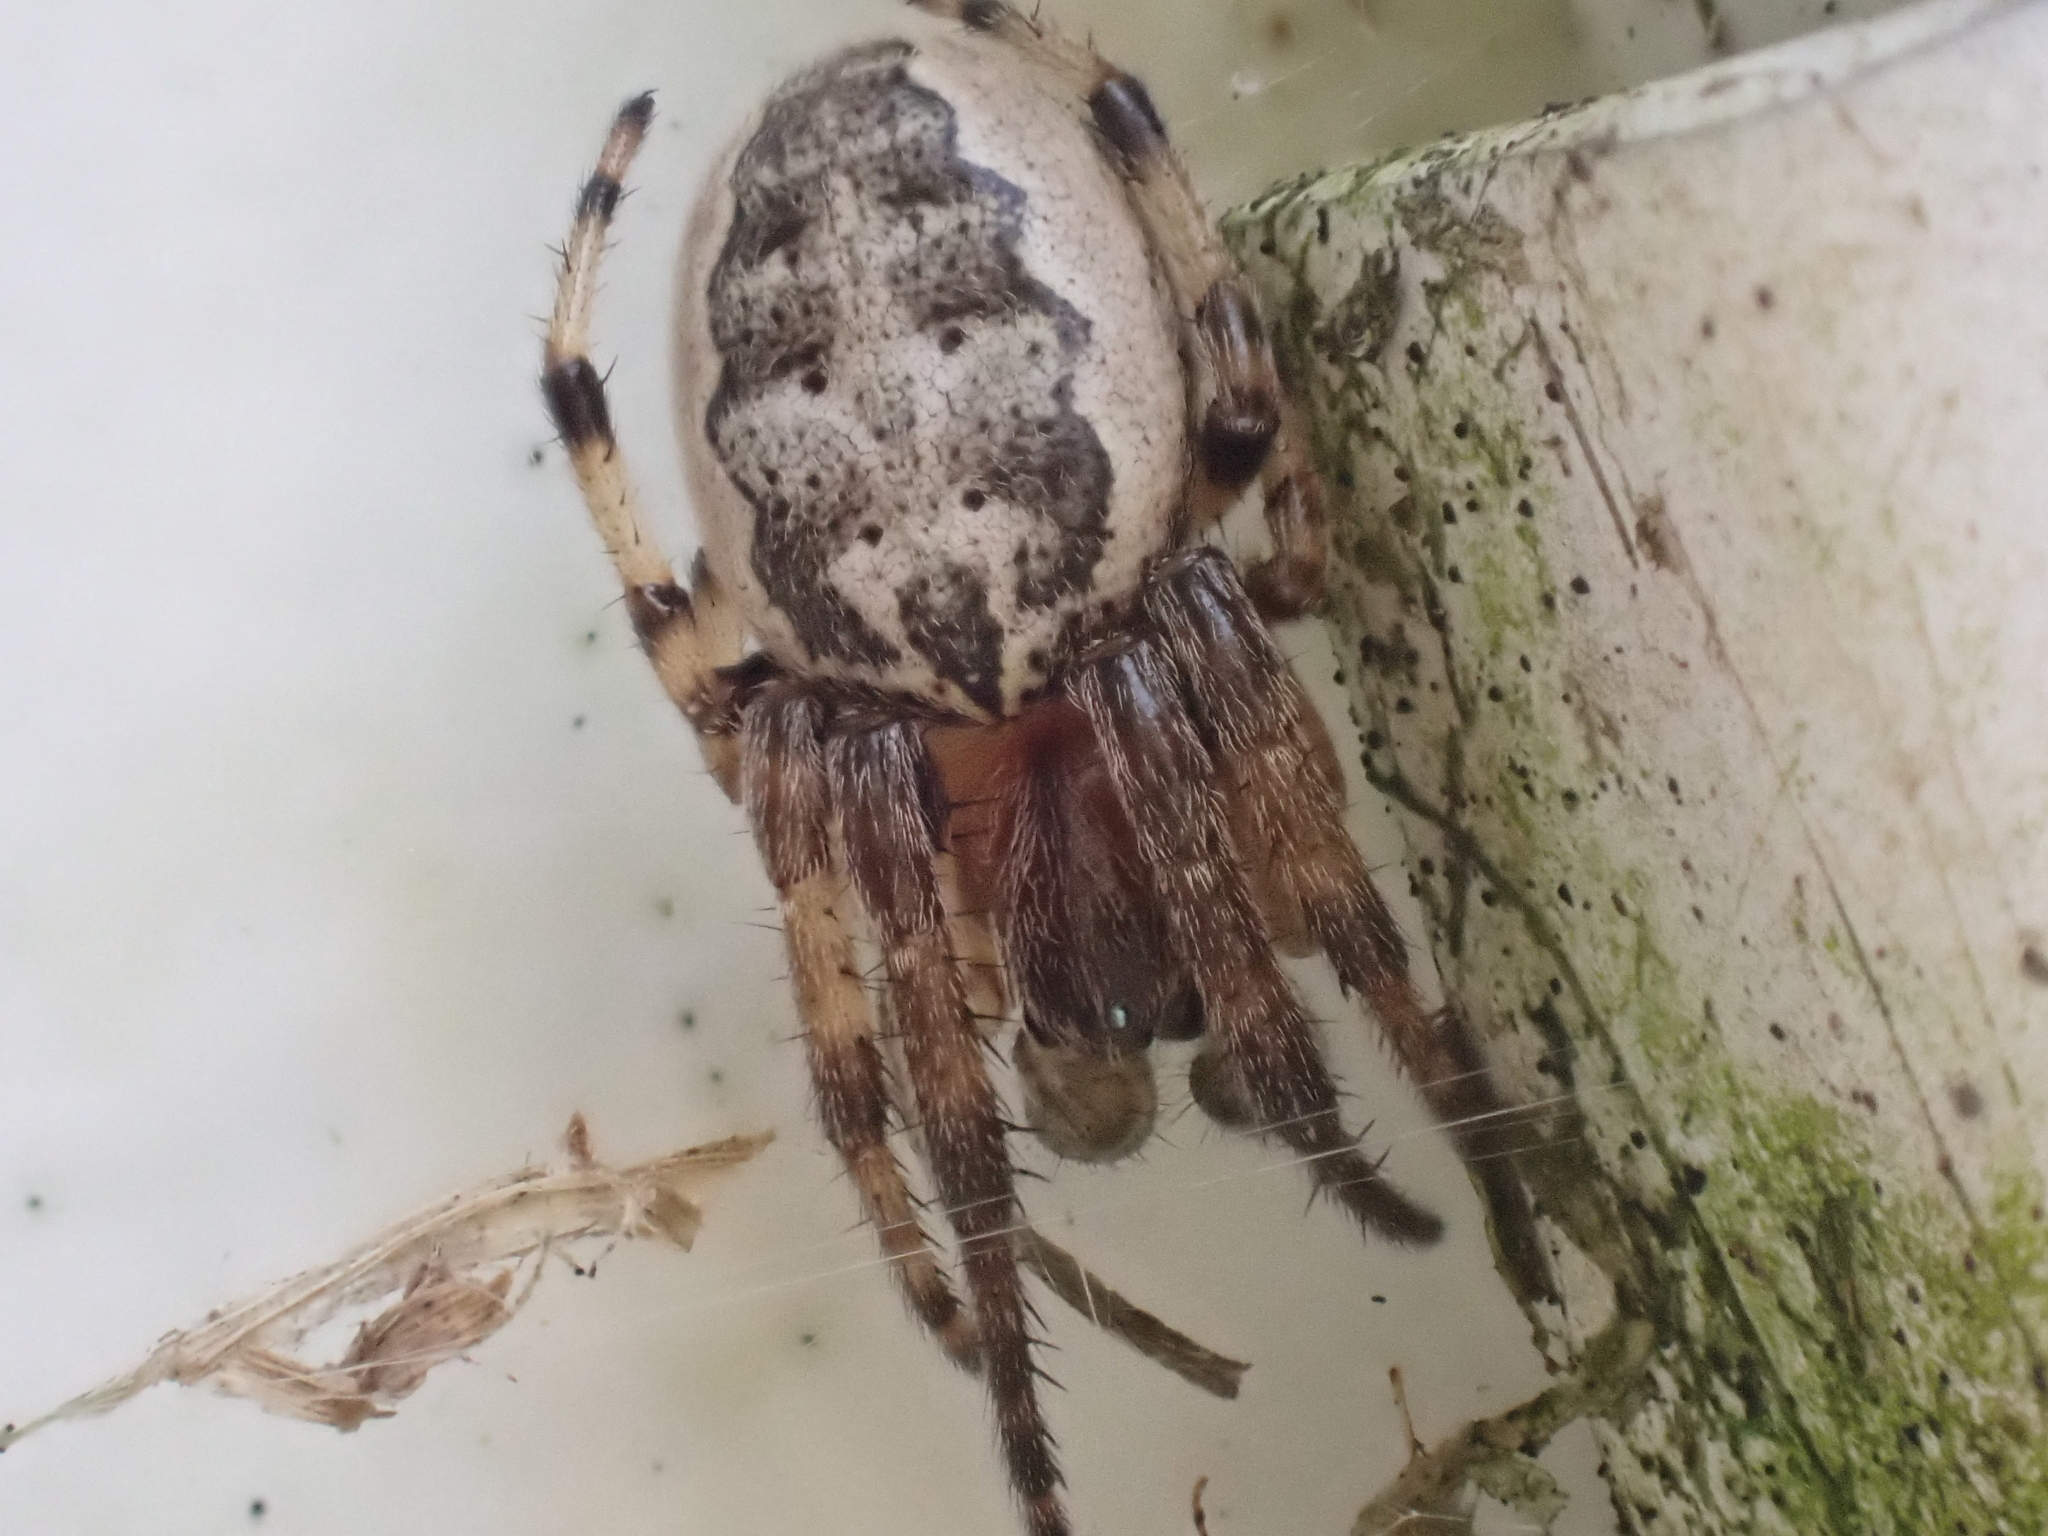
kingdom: Animalia
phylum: Arthropoda
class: Arachnida
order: Araneae
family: Araneidae
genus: Larinioides
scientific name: Larinioides cornutus
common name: Furrow orbweaver
